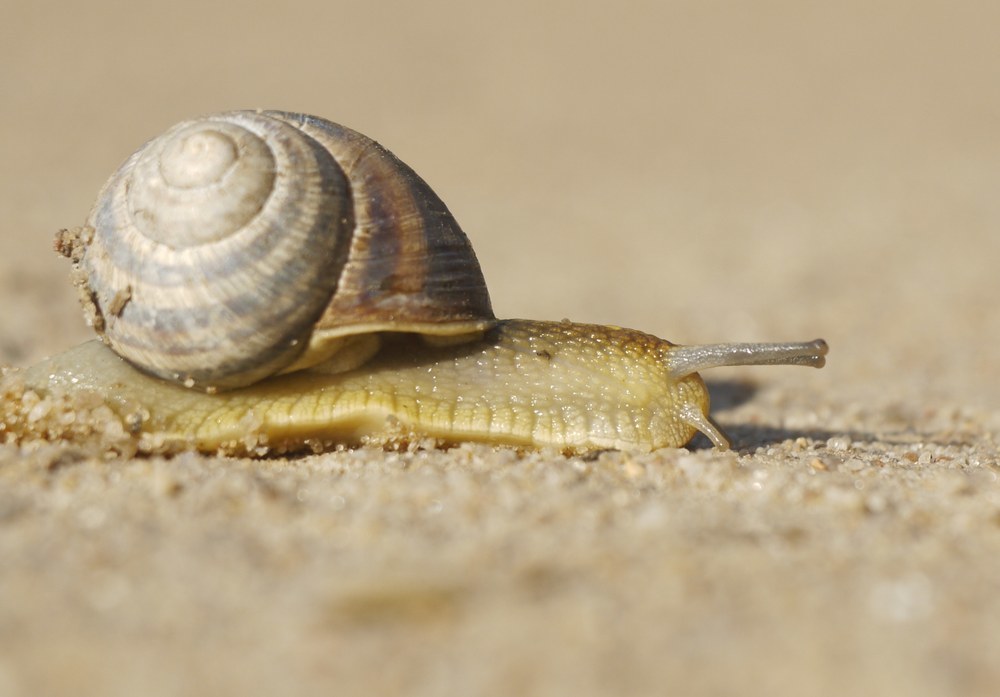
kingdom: Animalia
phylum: Mollusca
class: Gastropoda
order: Stylommatophora
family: Helicidae
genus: Helix
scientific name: Helix albescens
